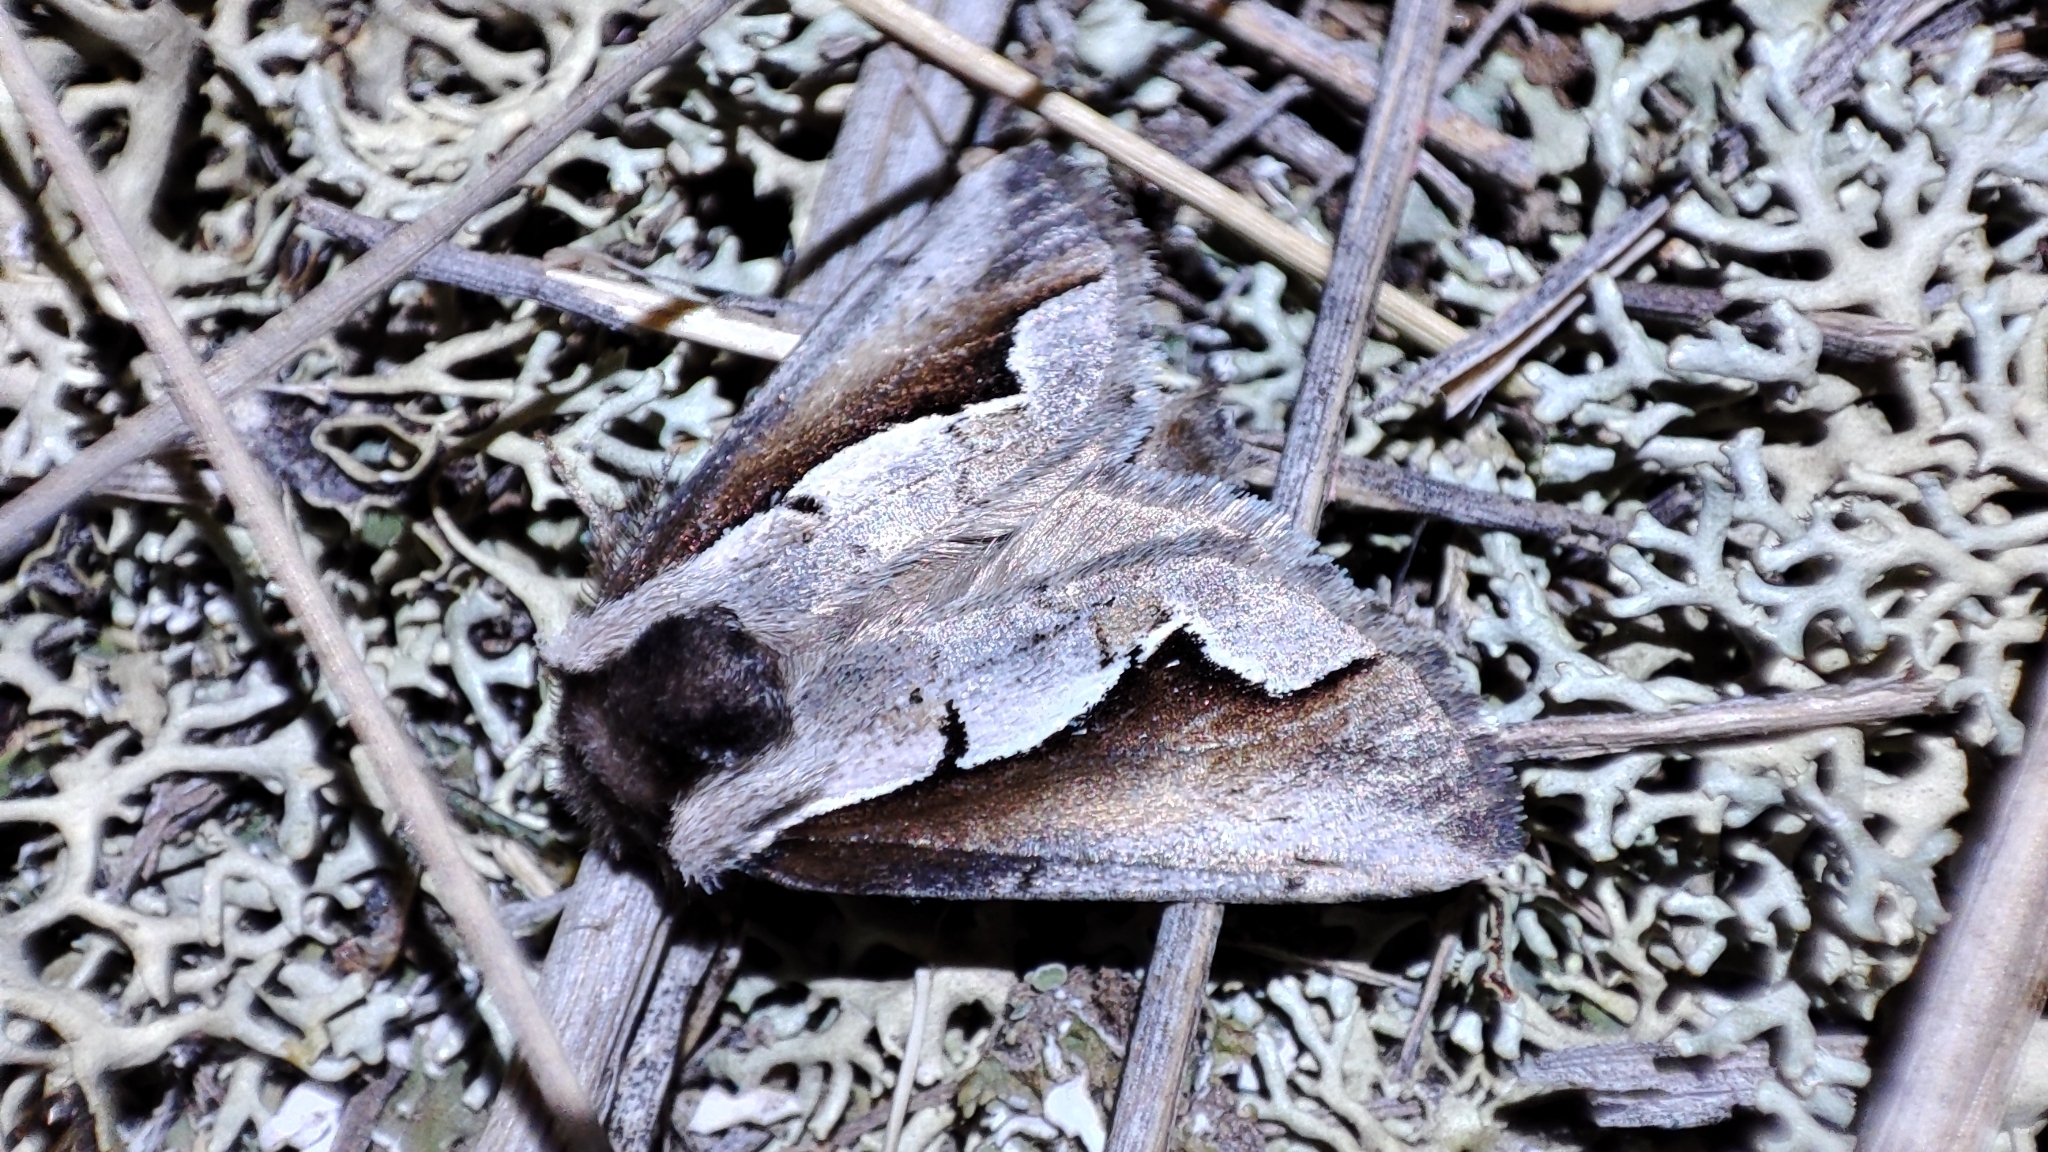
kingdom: Animalia
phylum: Arthropoda
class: Insecta
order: Lepidoptera
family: Notodontidae
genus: Nerice
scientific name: Nerice davidi
